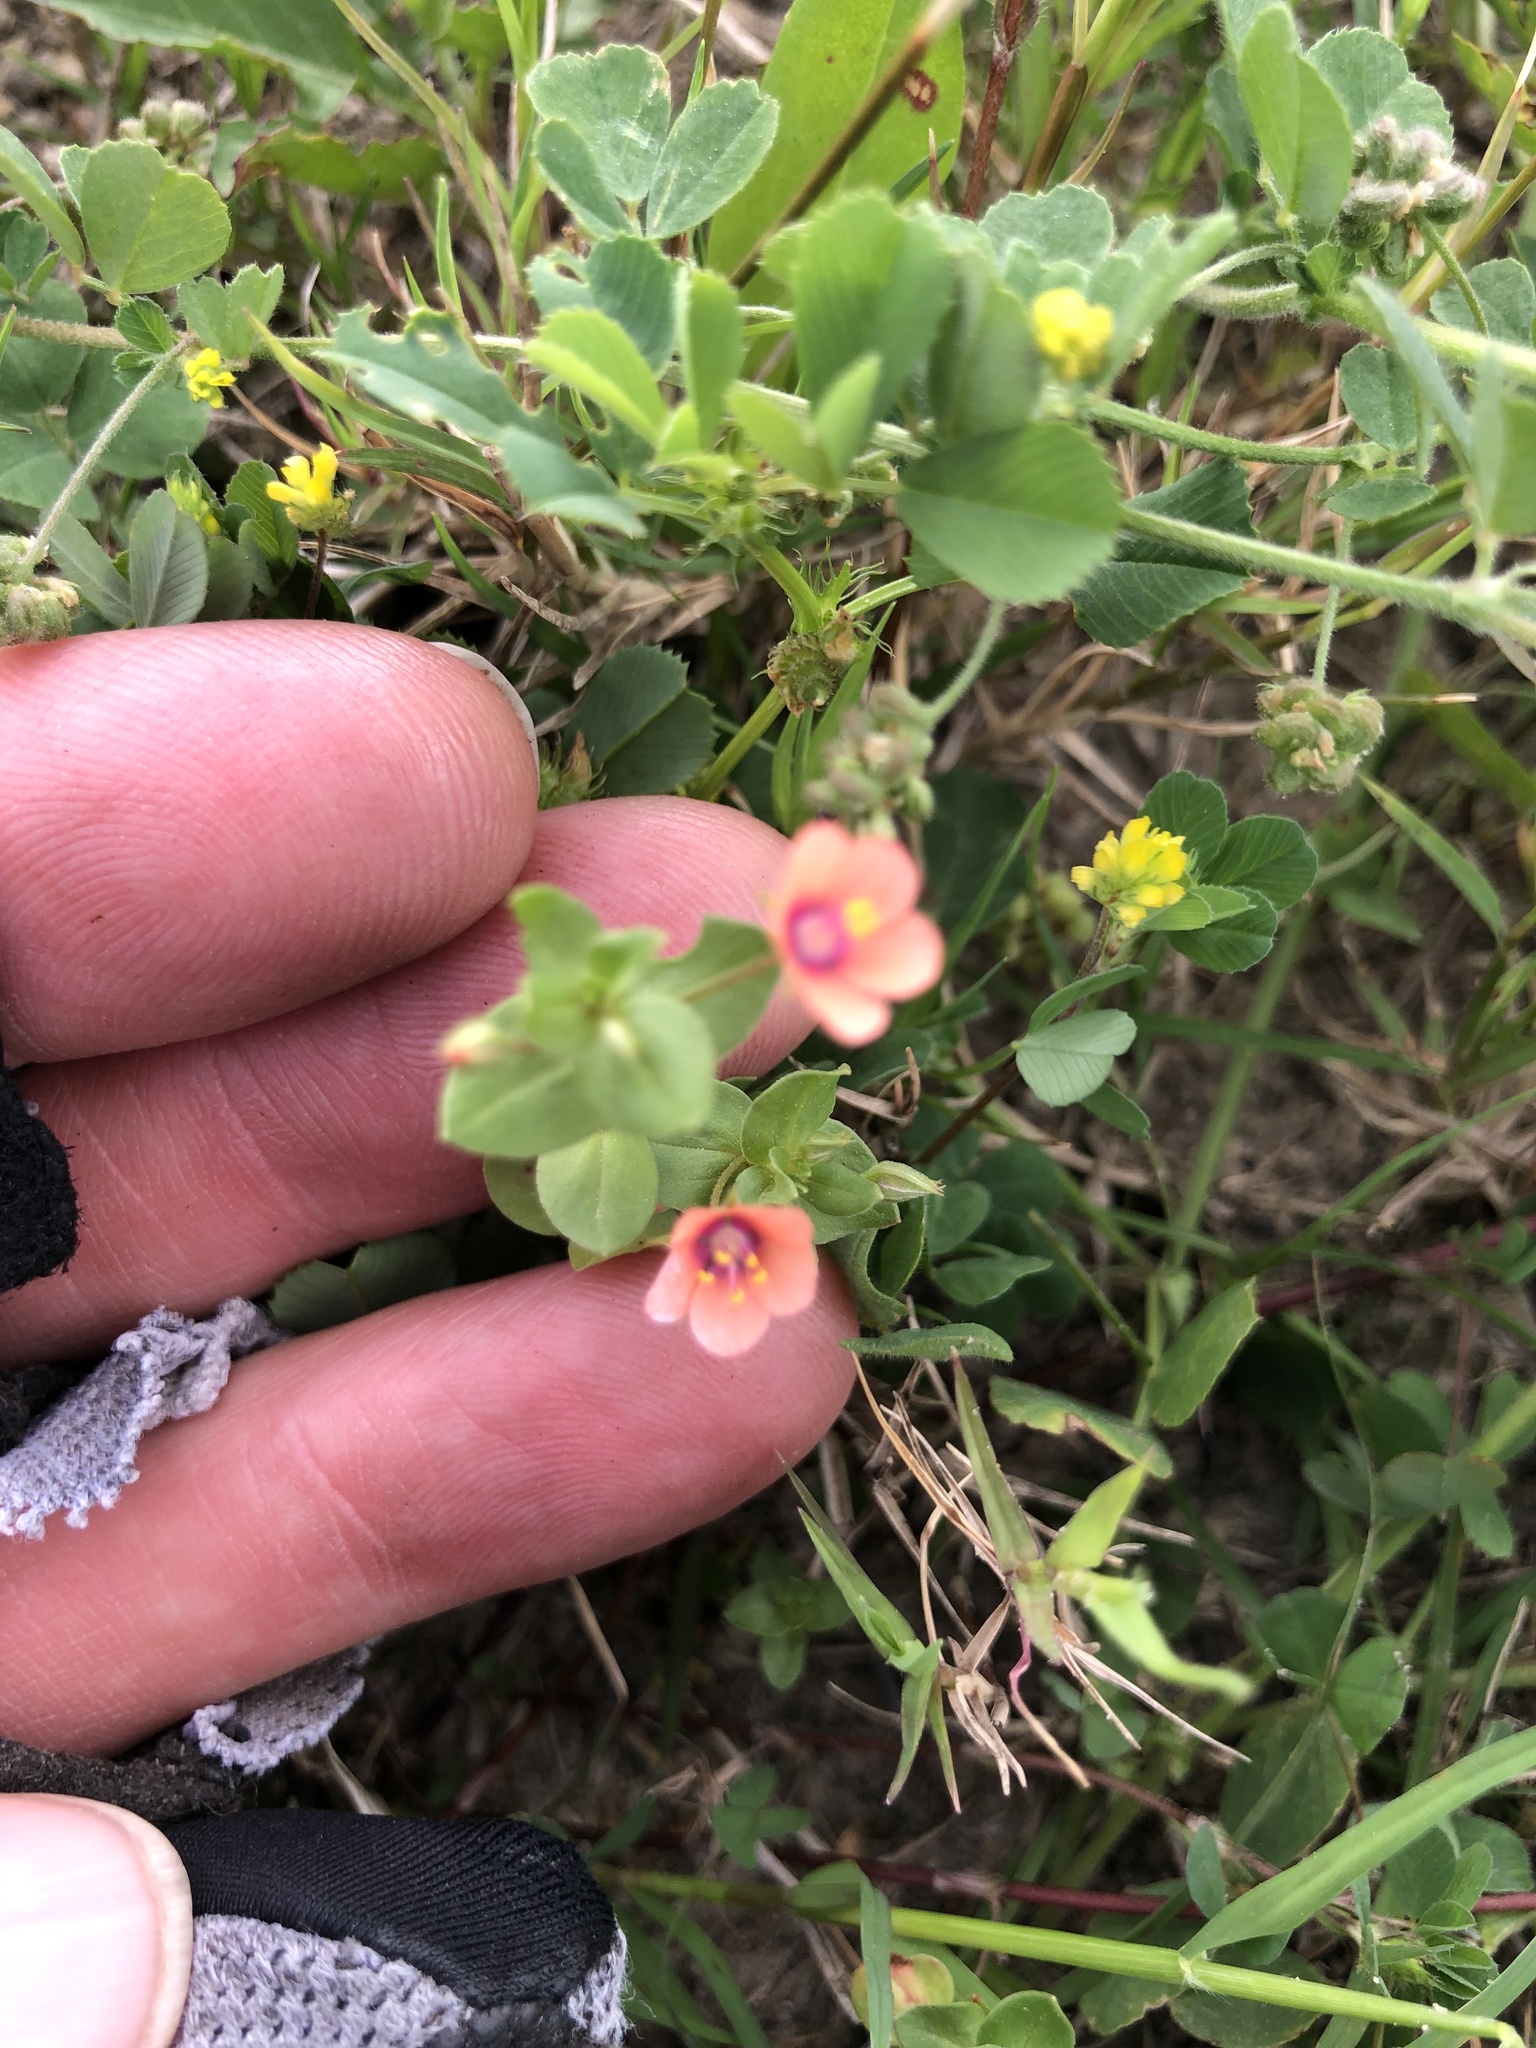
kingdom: Plantae
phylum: Tracheophyta
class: Magnoliopsida
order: Ericales
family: Primulaceae
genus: Lysimachia
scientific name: Lysimachia arvensis
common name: Scarlet pimpernel
